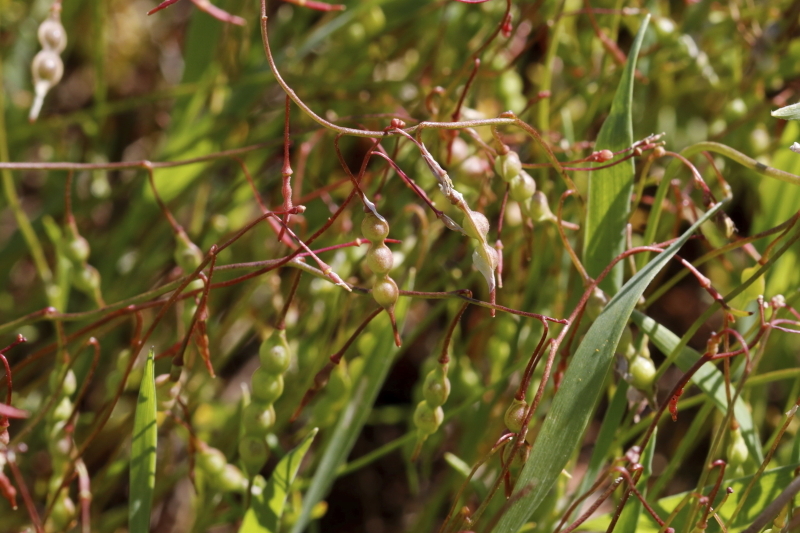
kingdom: Plantae
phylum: Tracheophyta
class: Magnoliopsida
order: Brassicales
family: Brassicaceae
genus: Heliophila
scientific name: Heliophila collina
